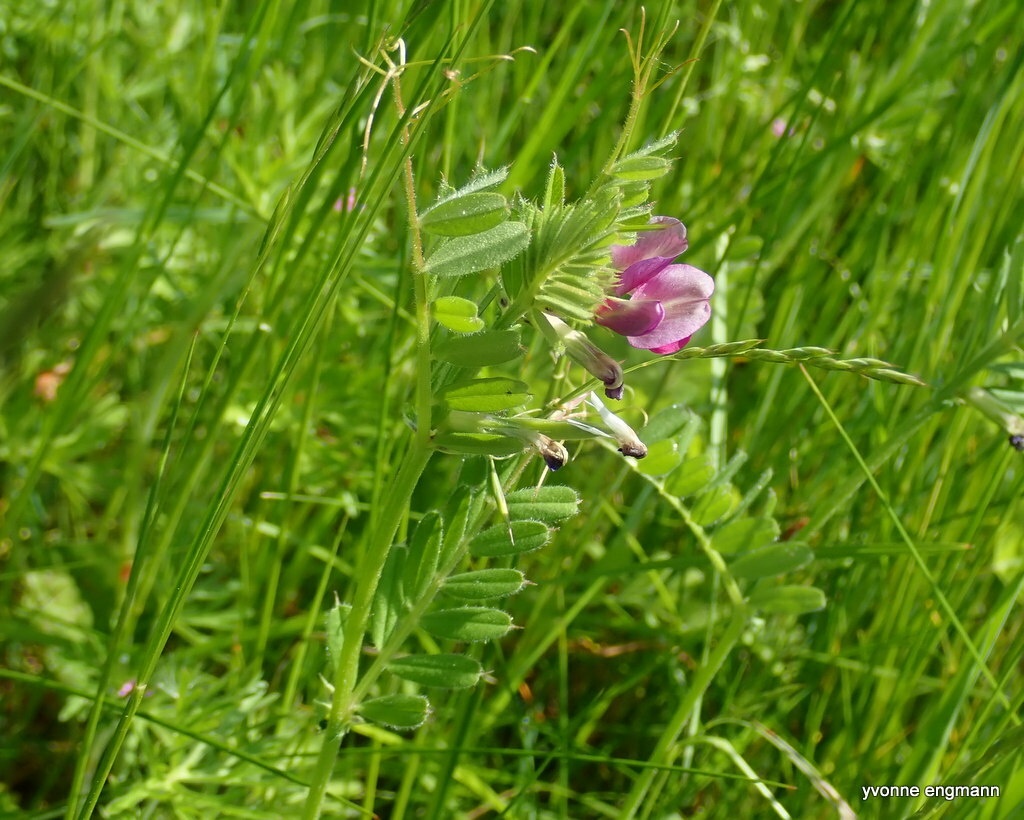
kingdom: Plantae
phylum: Tracheophyta
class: Magnoliopsida
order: Fabales
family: Fabaceae
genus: Vicia
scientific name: Vicia sativa
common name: Garden vetch
